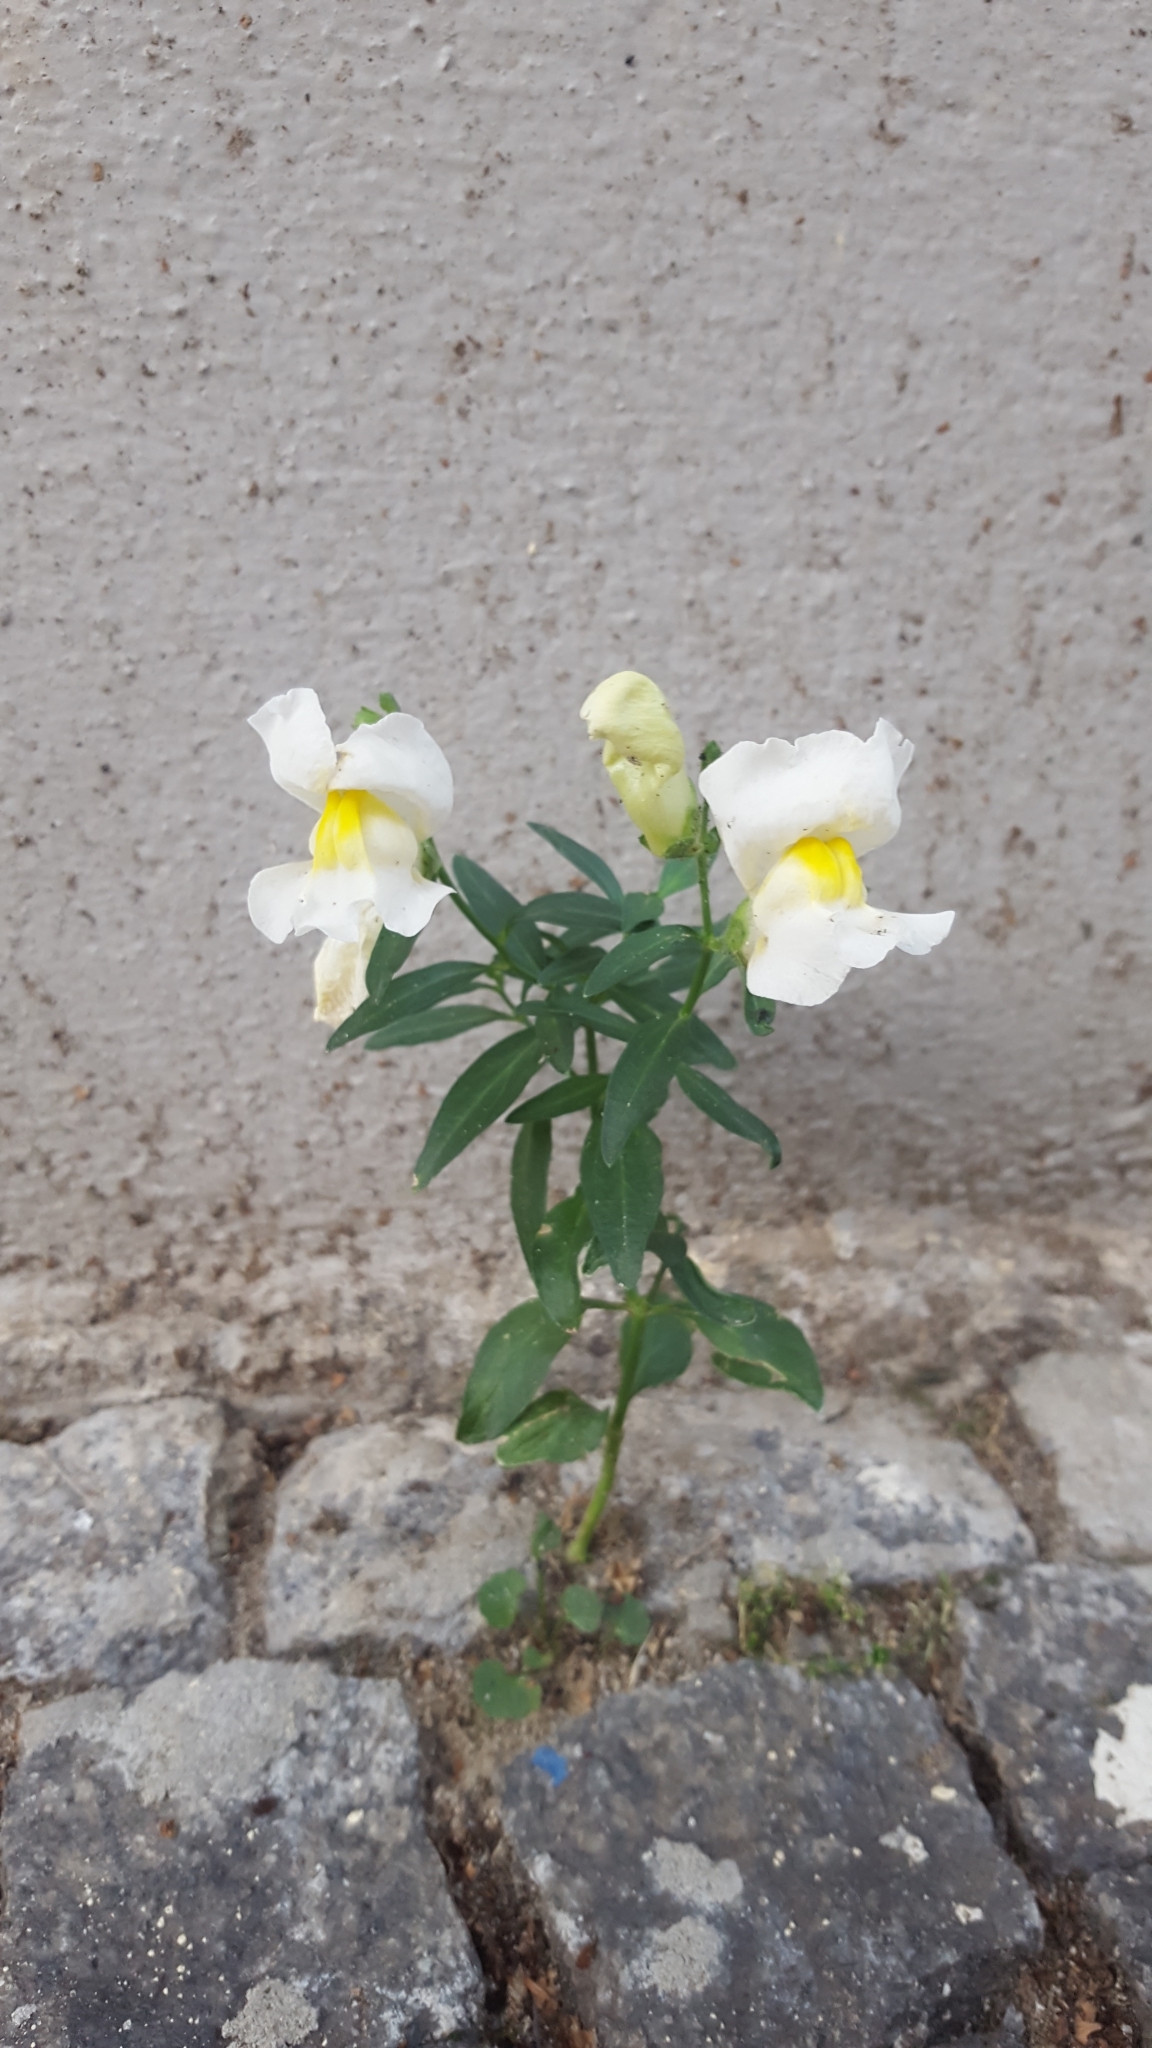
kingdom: Plantae
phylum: Tracheophyta
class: Magnoliopsida
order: Lamiales
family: Plantaginaceae
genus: Antirrhinum
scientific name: Antirrhinum majus
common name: Snapdragon
